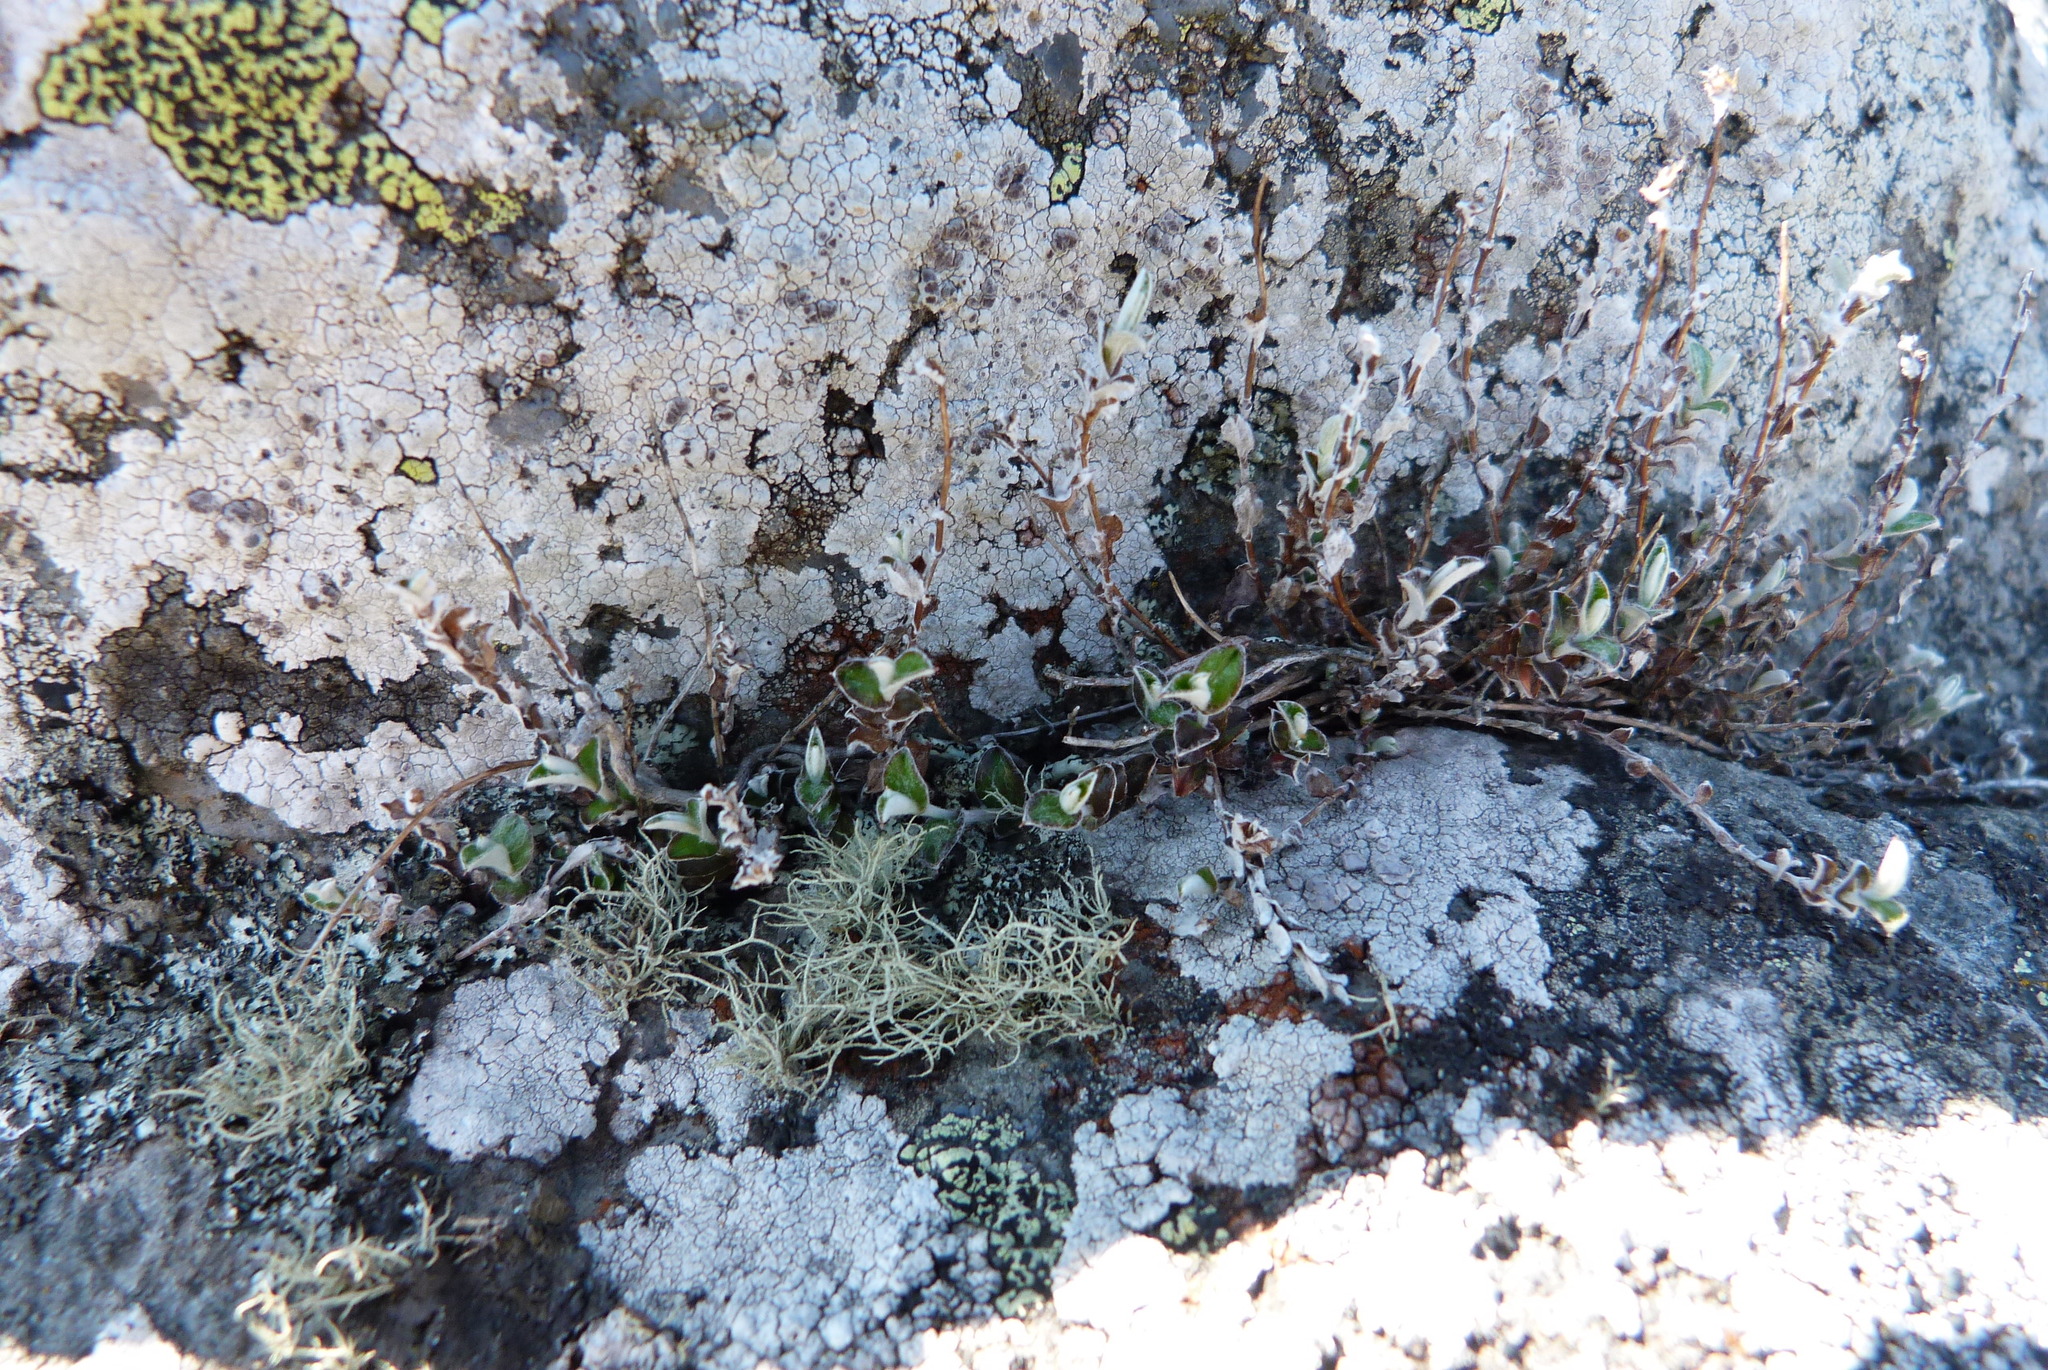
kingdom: Plantae
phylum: Tracheophyta
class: Magnoliopsida
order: Asterales
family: Asteraceae
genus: Helichrysum
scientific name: Helichrysum filicaule
